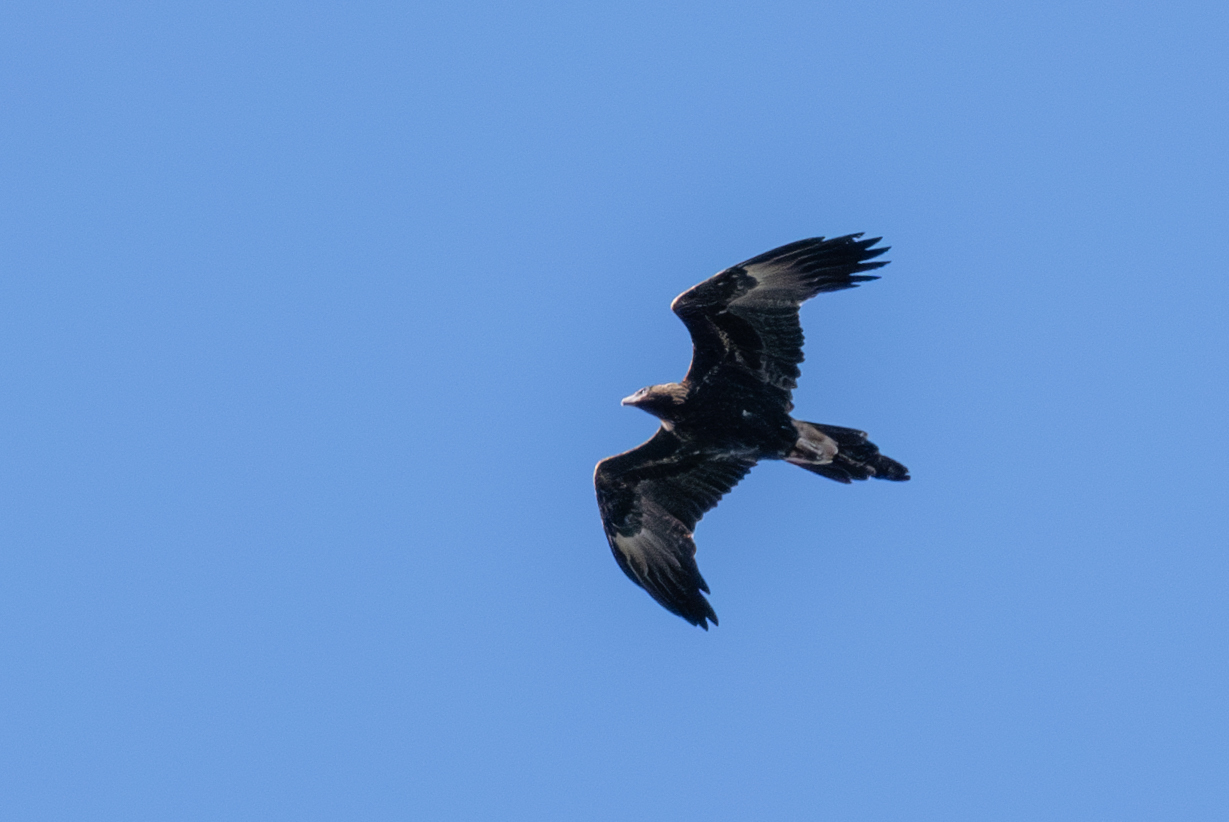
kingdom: Animalia
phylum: Chordata
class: Aves
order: Accipitriformes
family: Accipitridae
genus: Aquila
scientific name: Aquila audax
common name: Wedge-tailed eagle
